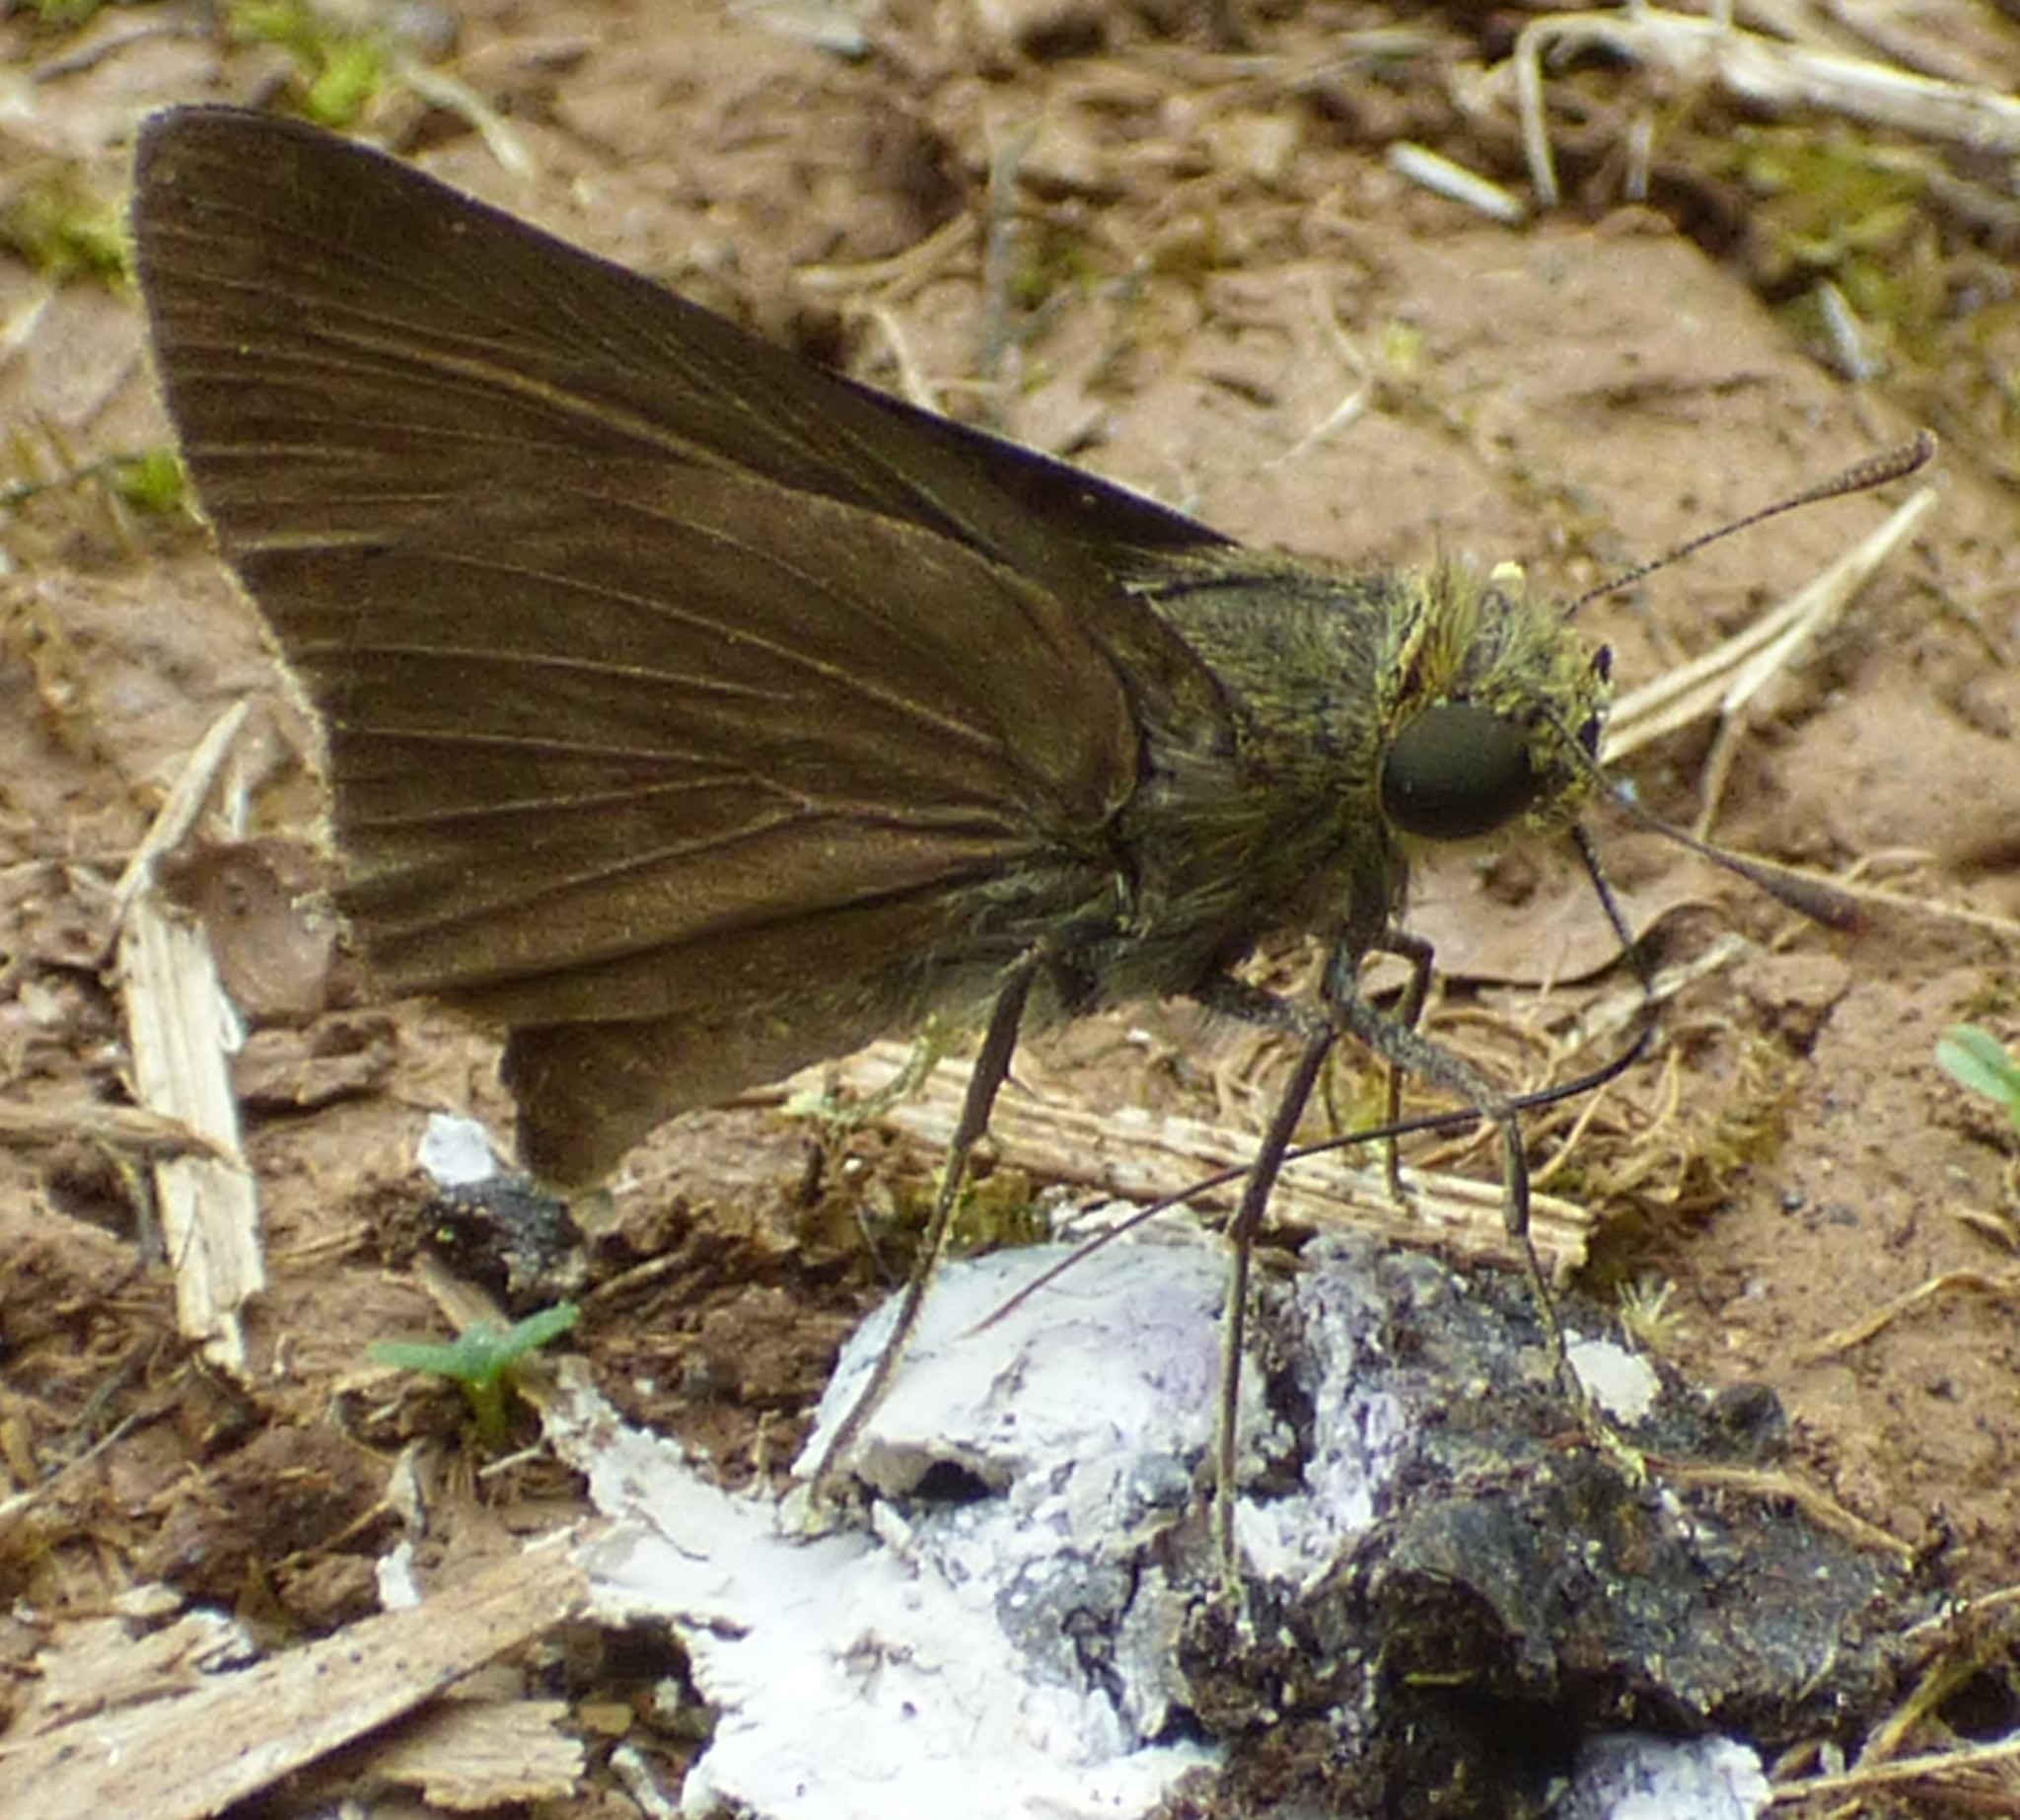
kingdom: Animalia
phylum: Arthropoda
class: Insecta
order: Lepidoptera
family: Hesperiidae
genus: Euphyes
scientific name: Euphyes vestris
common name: Dun skipper
